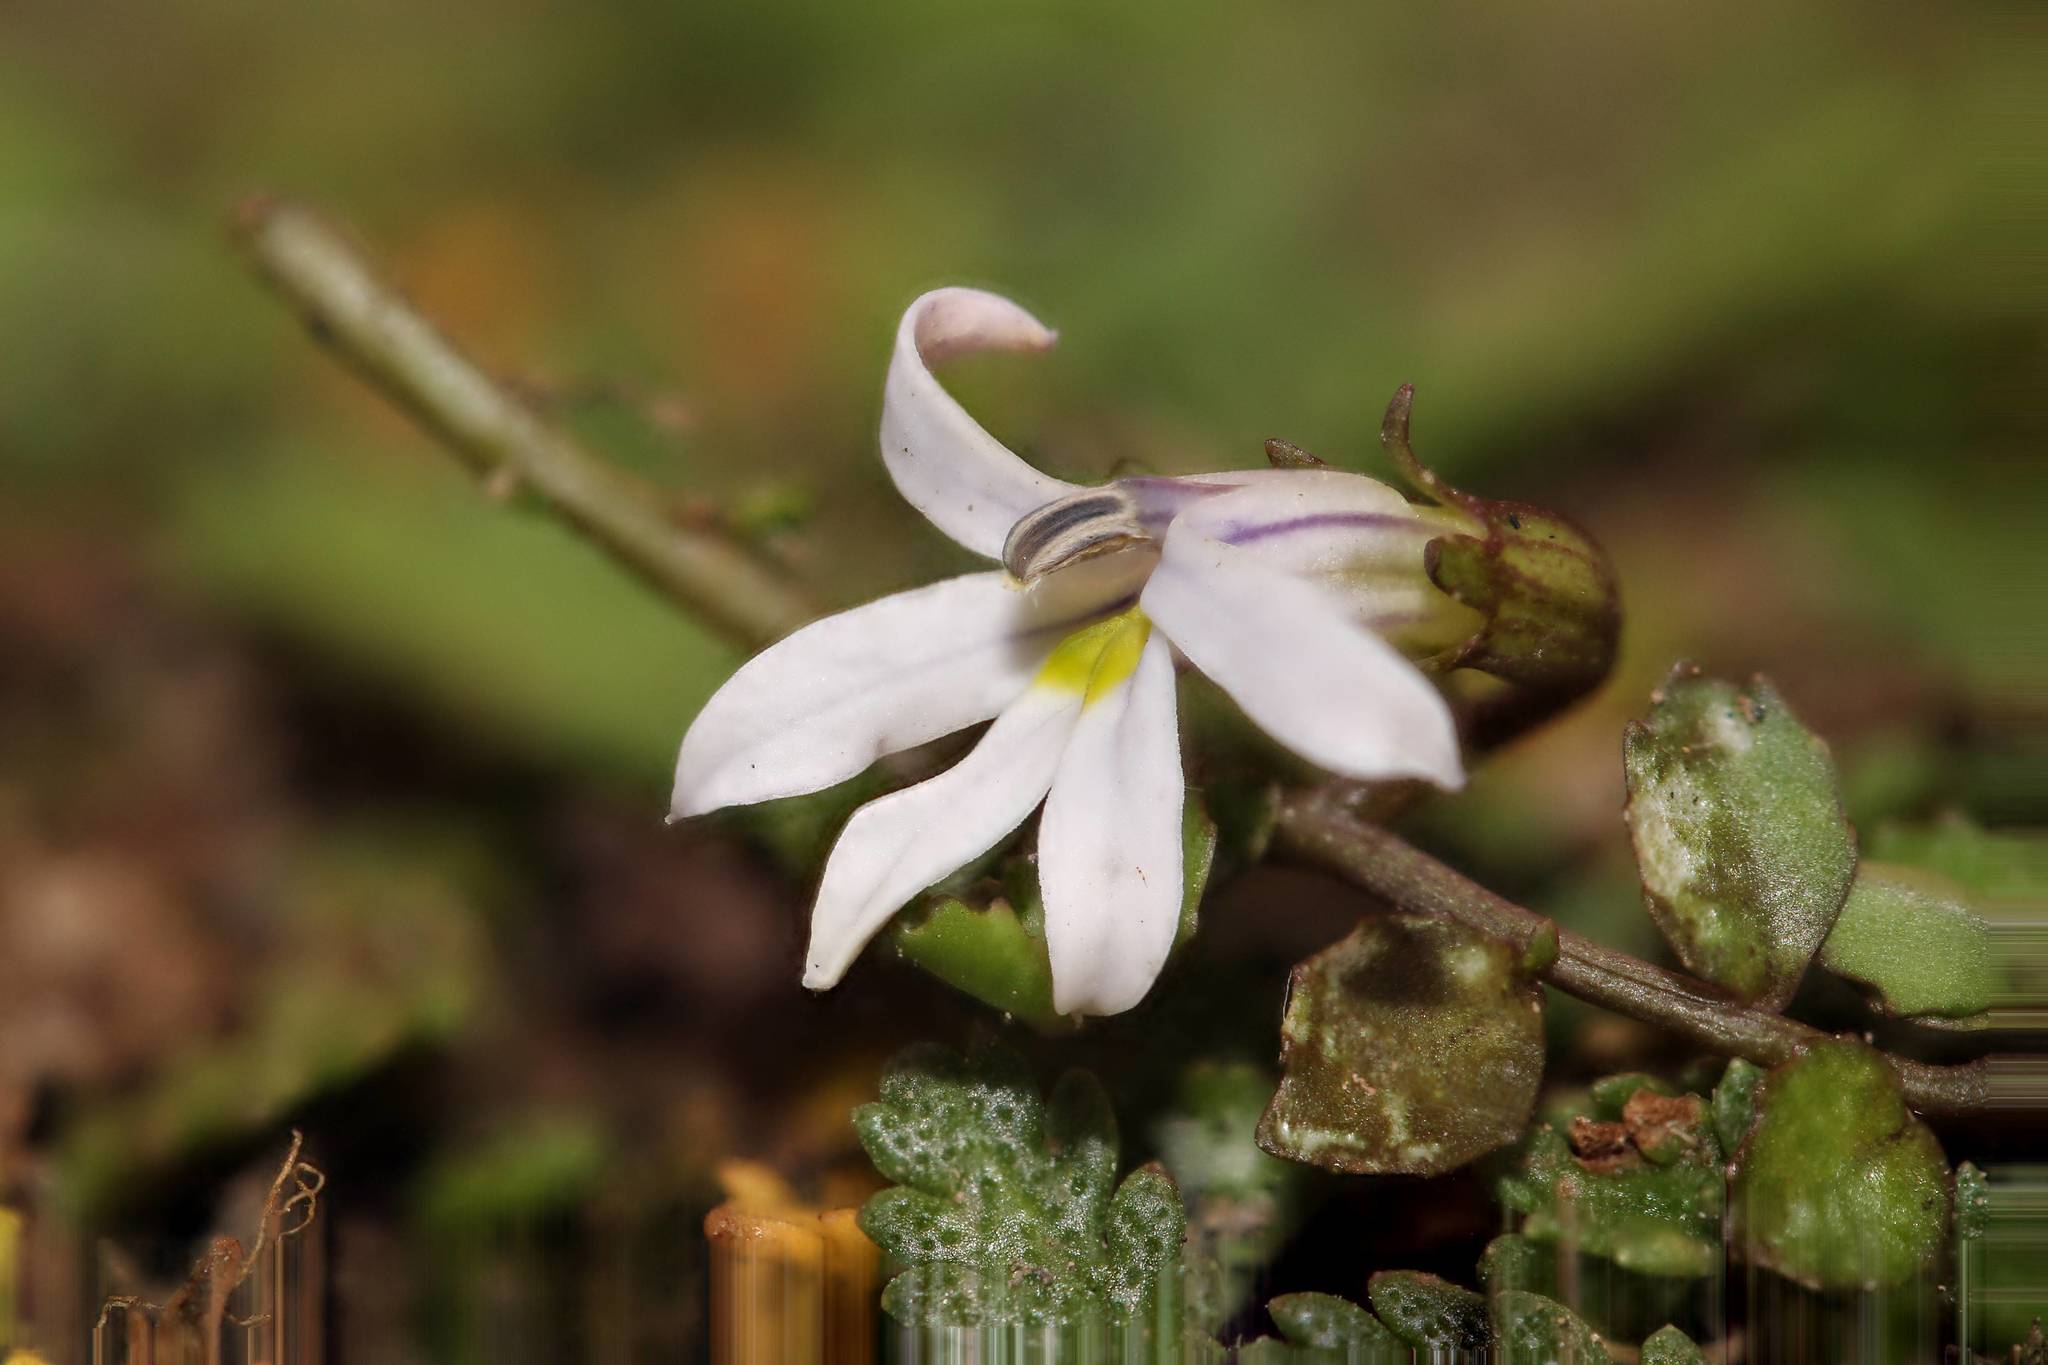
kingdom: Plantae
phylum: Tracheophyta
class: Magnoliopsida
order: Asterales
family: Campanulaceae
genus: Lobelia
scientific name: Lobelia perpusilla
